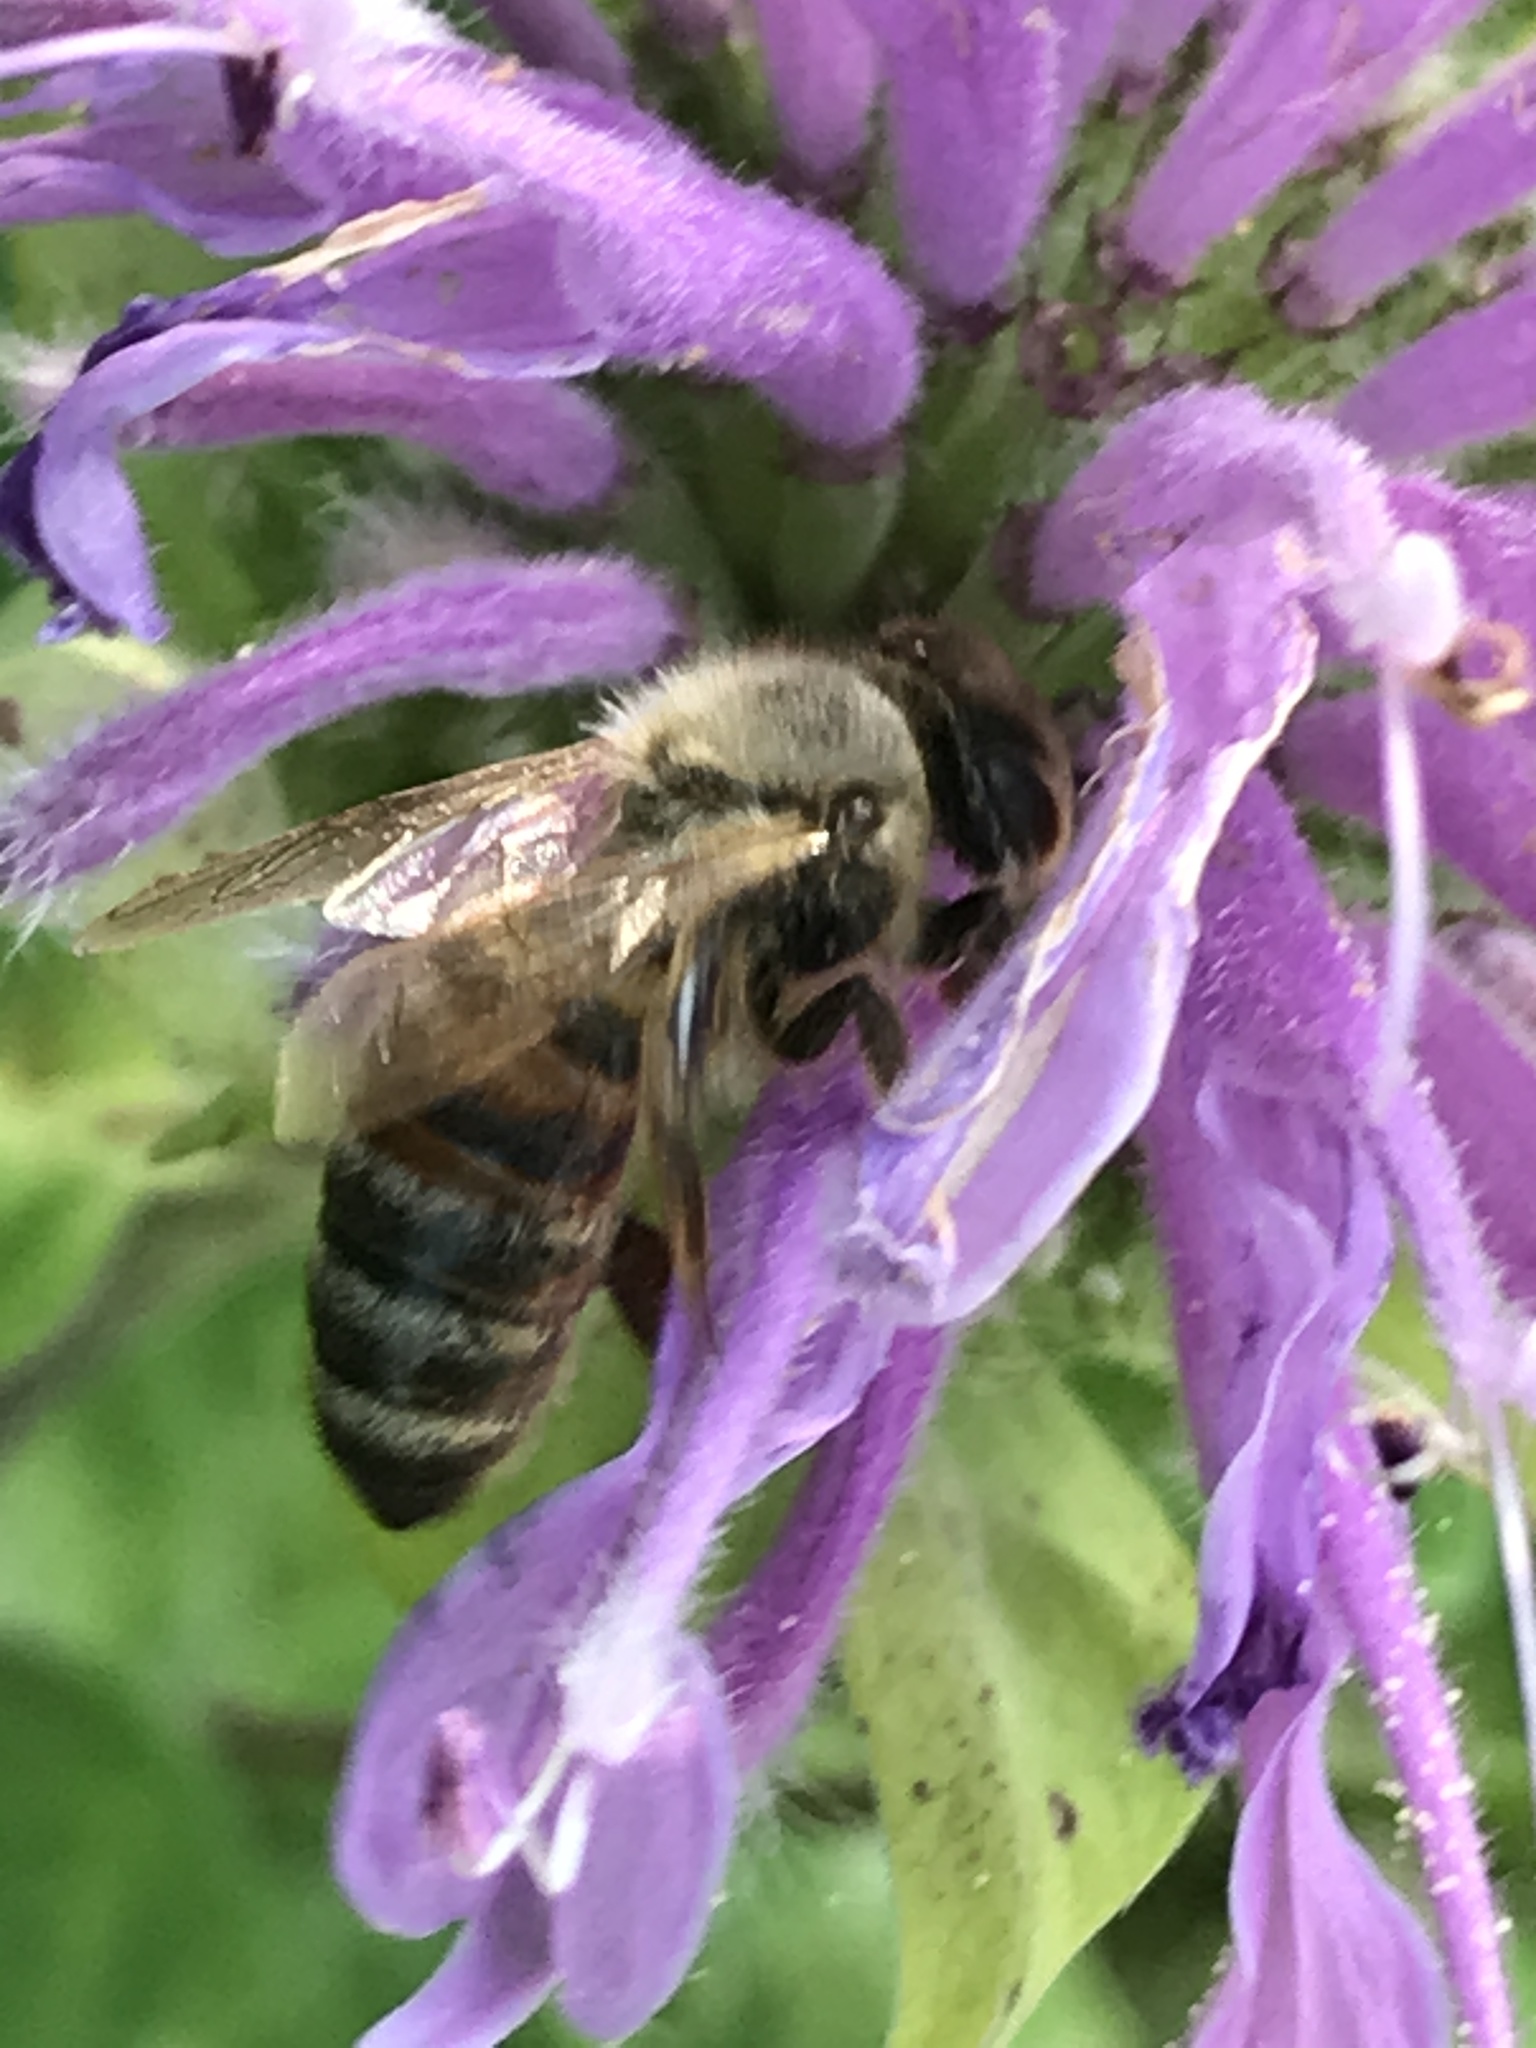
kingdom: Animalia
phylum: Arthropoda
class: Insecta
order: Hymenoptera
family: Apidae
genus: Apis
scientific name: Apis mellifera
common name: Honey bee
